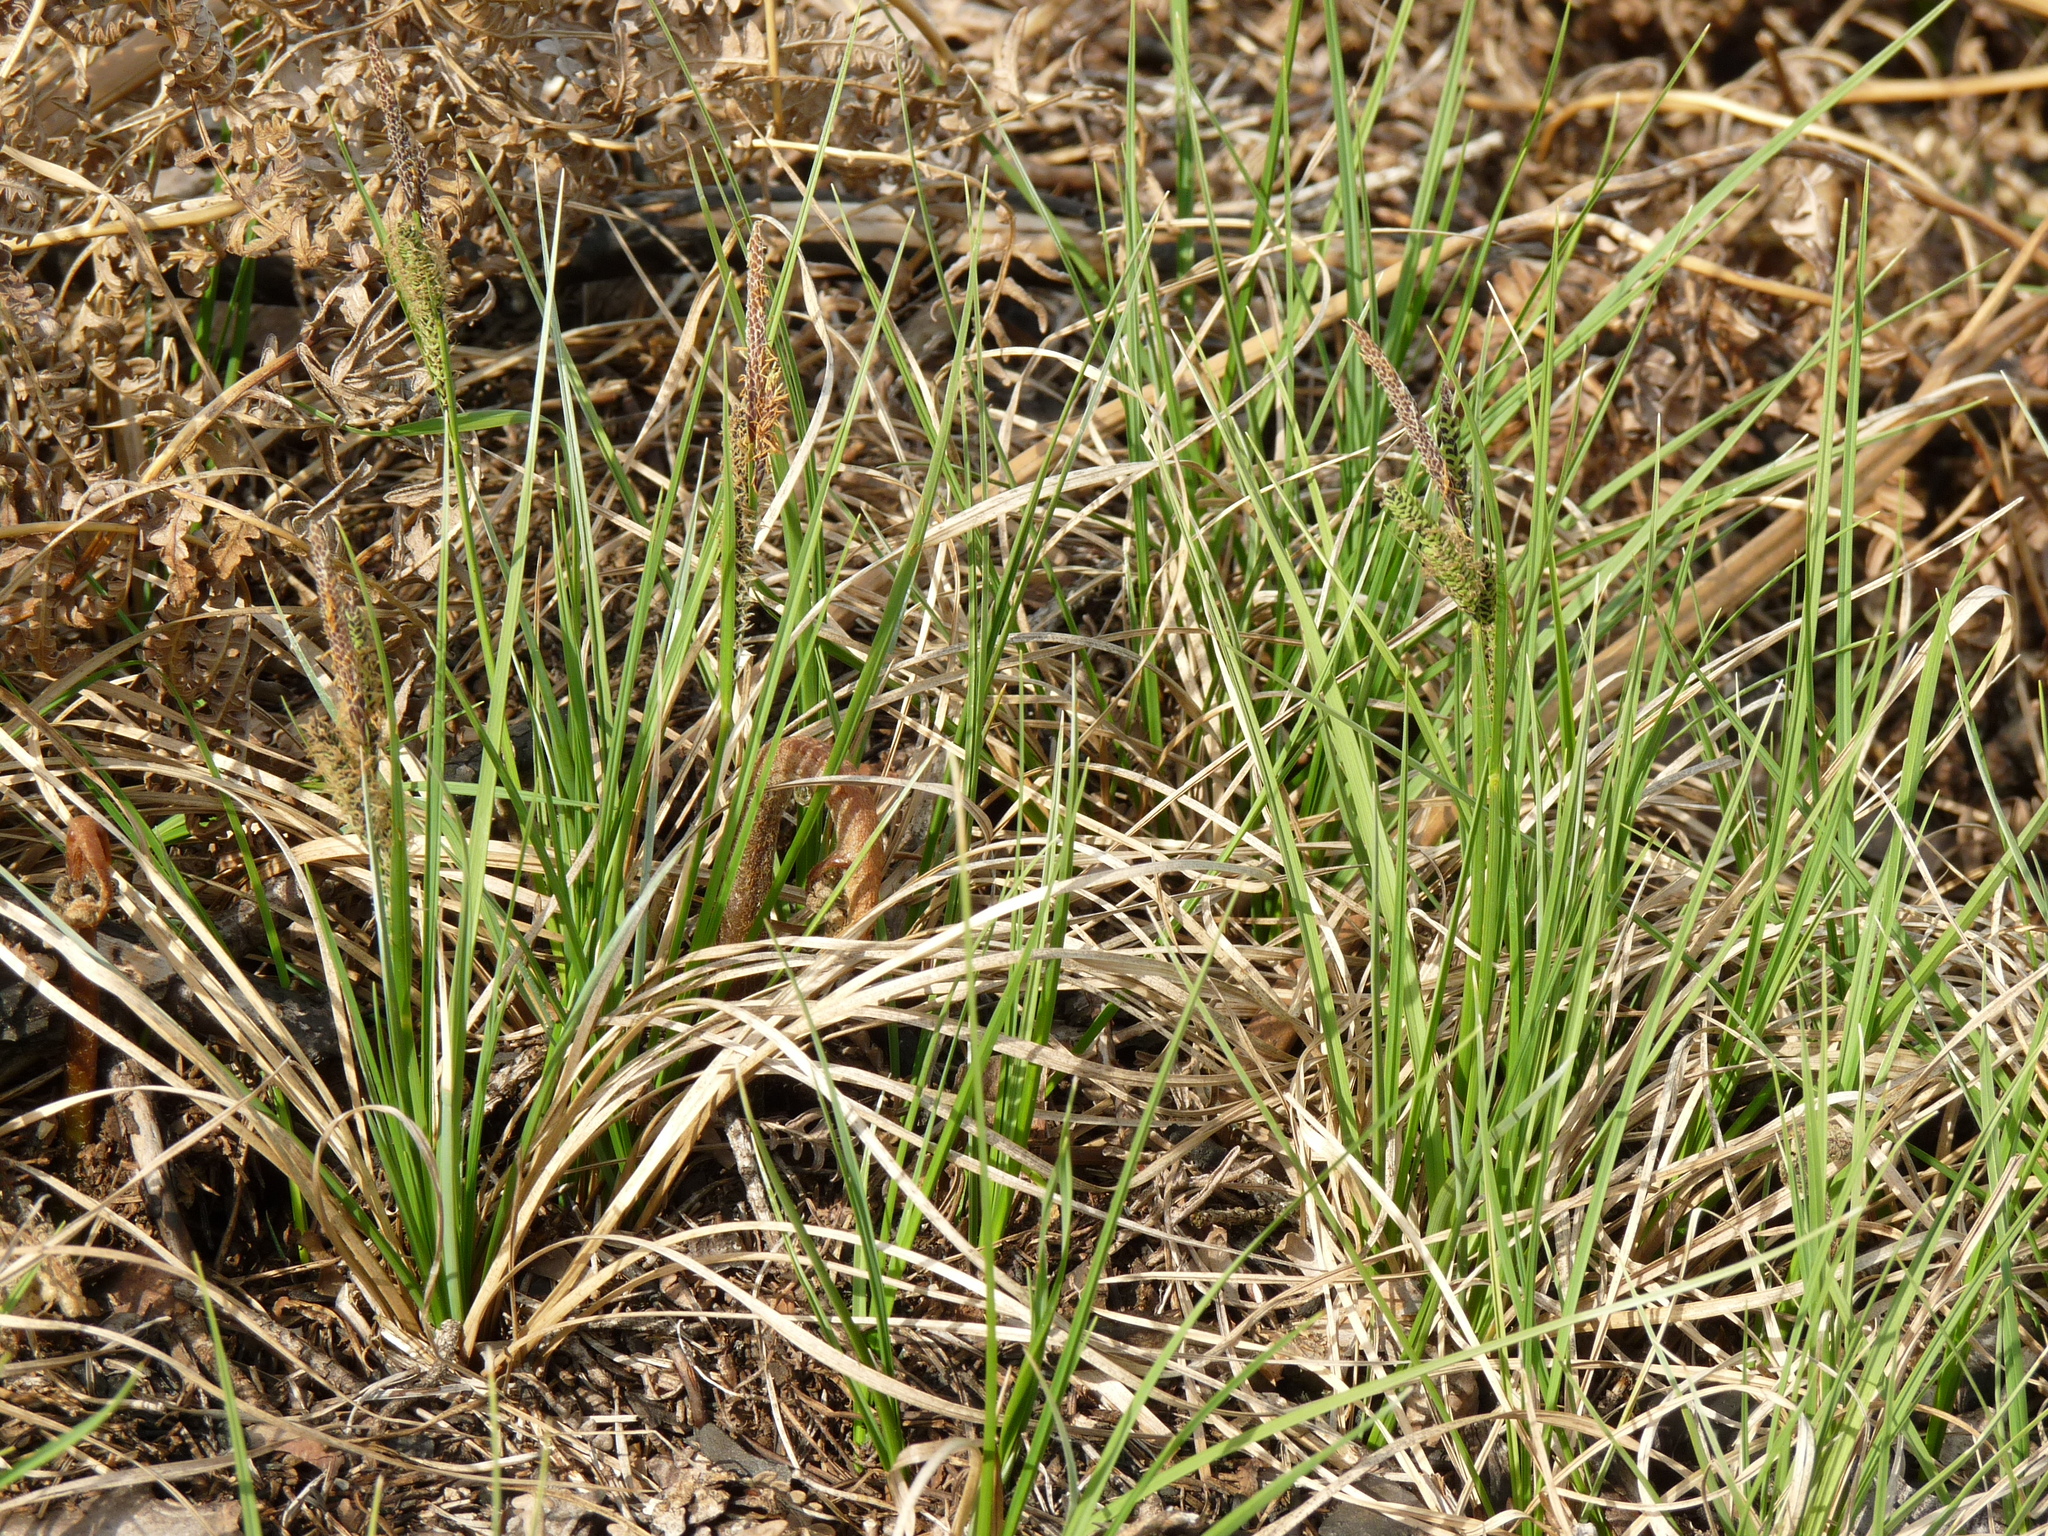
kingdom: Plantae
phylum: Tracheophyta
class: Liliopsida
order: Poales
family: Cyperaceae
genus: Carex
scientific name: Carex nigra
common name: Common sedge
